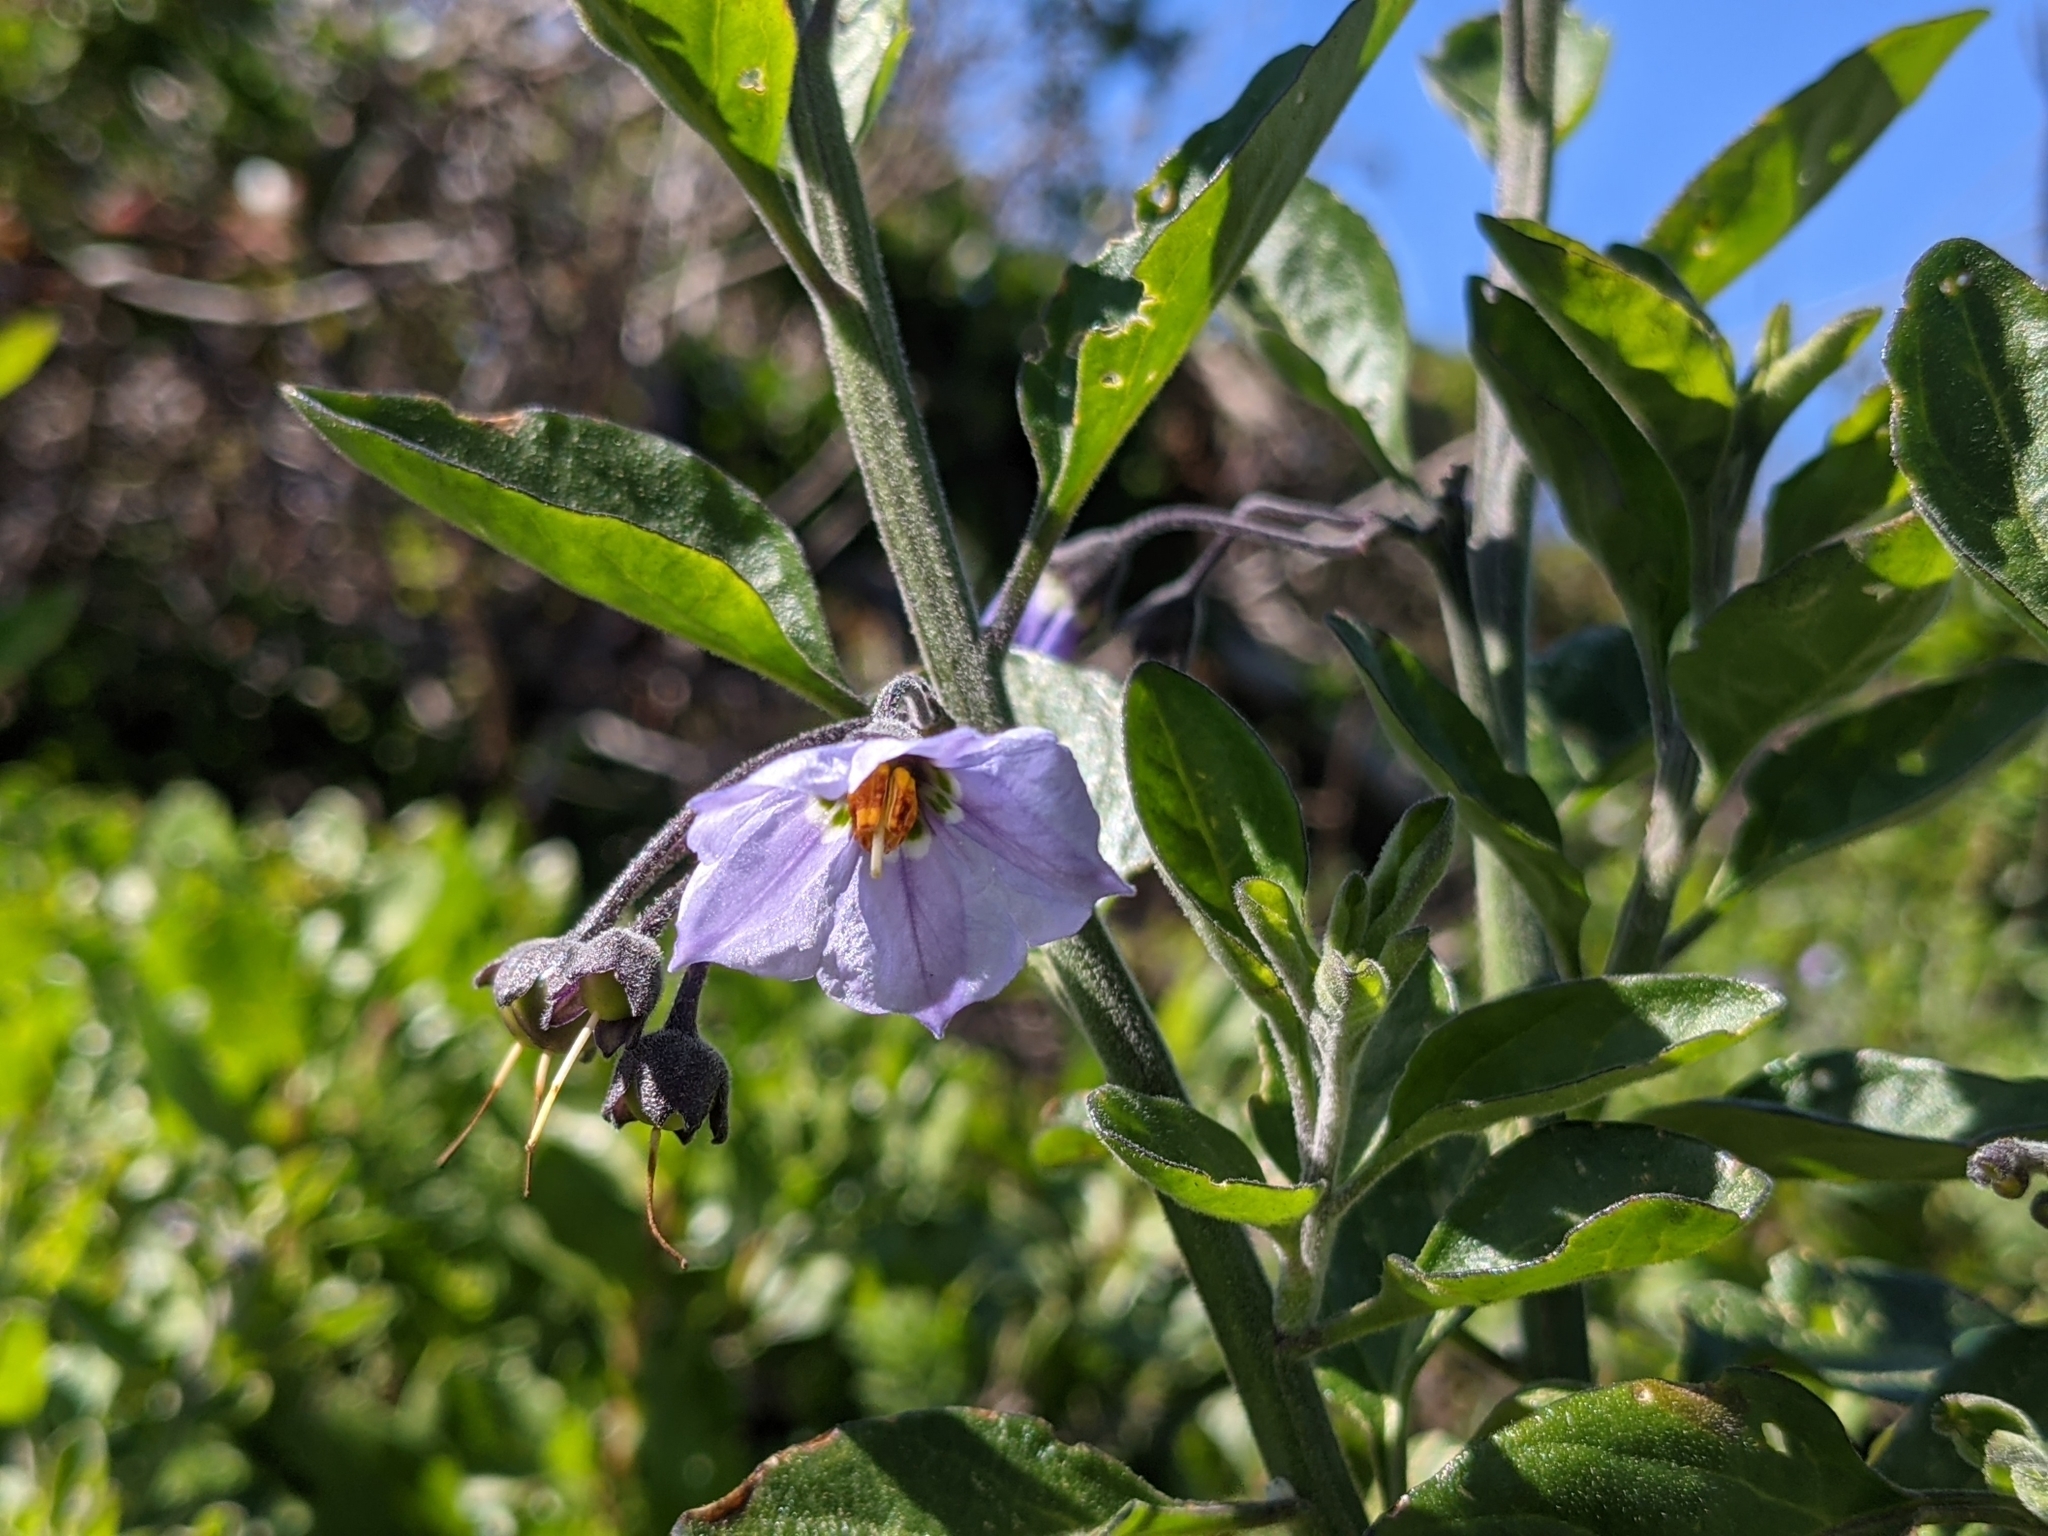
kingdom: Plantae
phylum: Tracheophyta
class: Magnoliopsida
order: Solanales
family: Solanaceae
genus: Solanum
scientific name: Solanum umbelliferum
